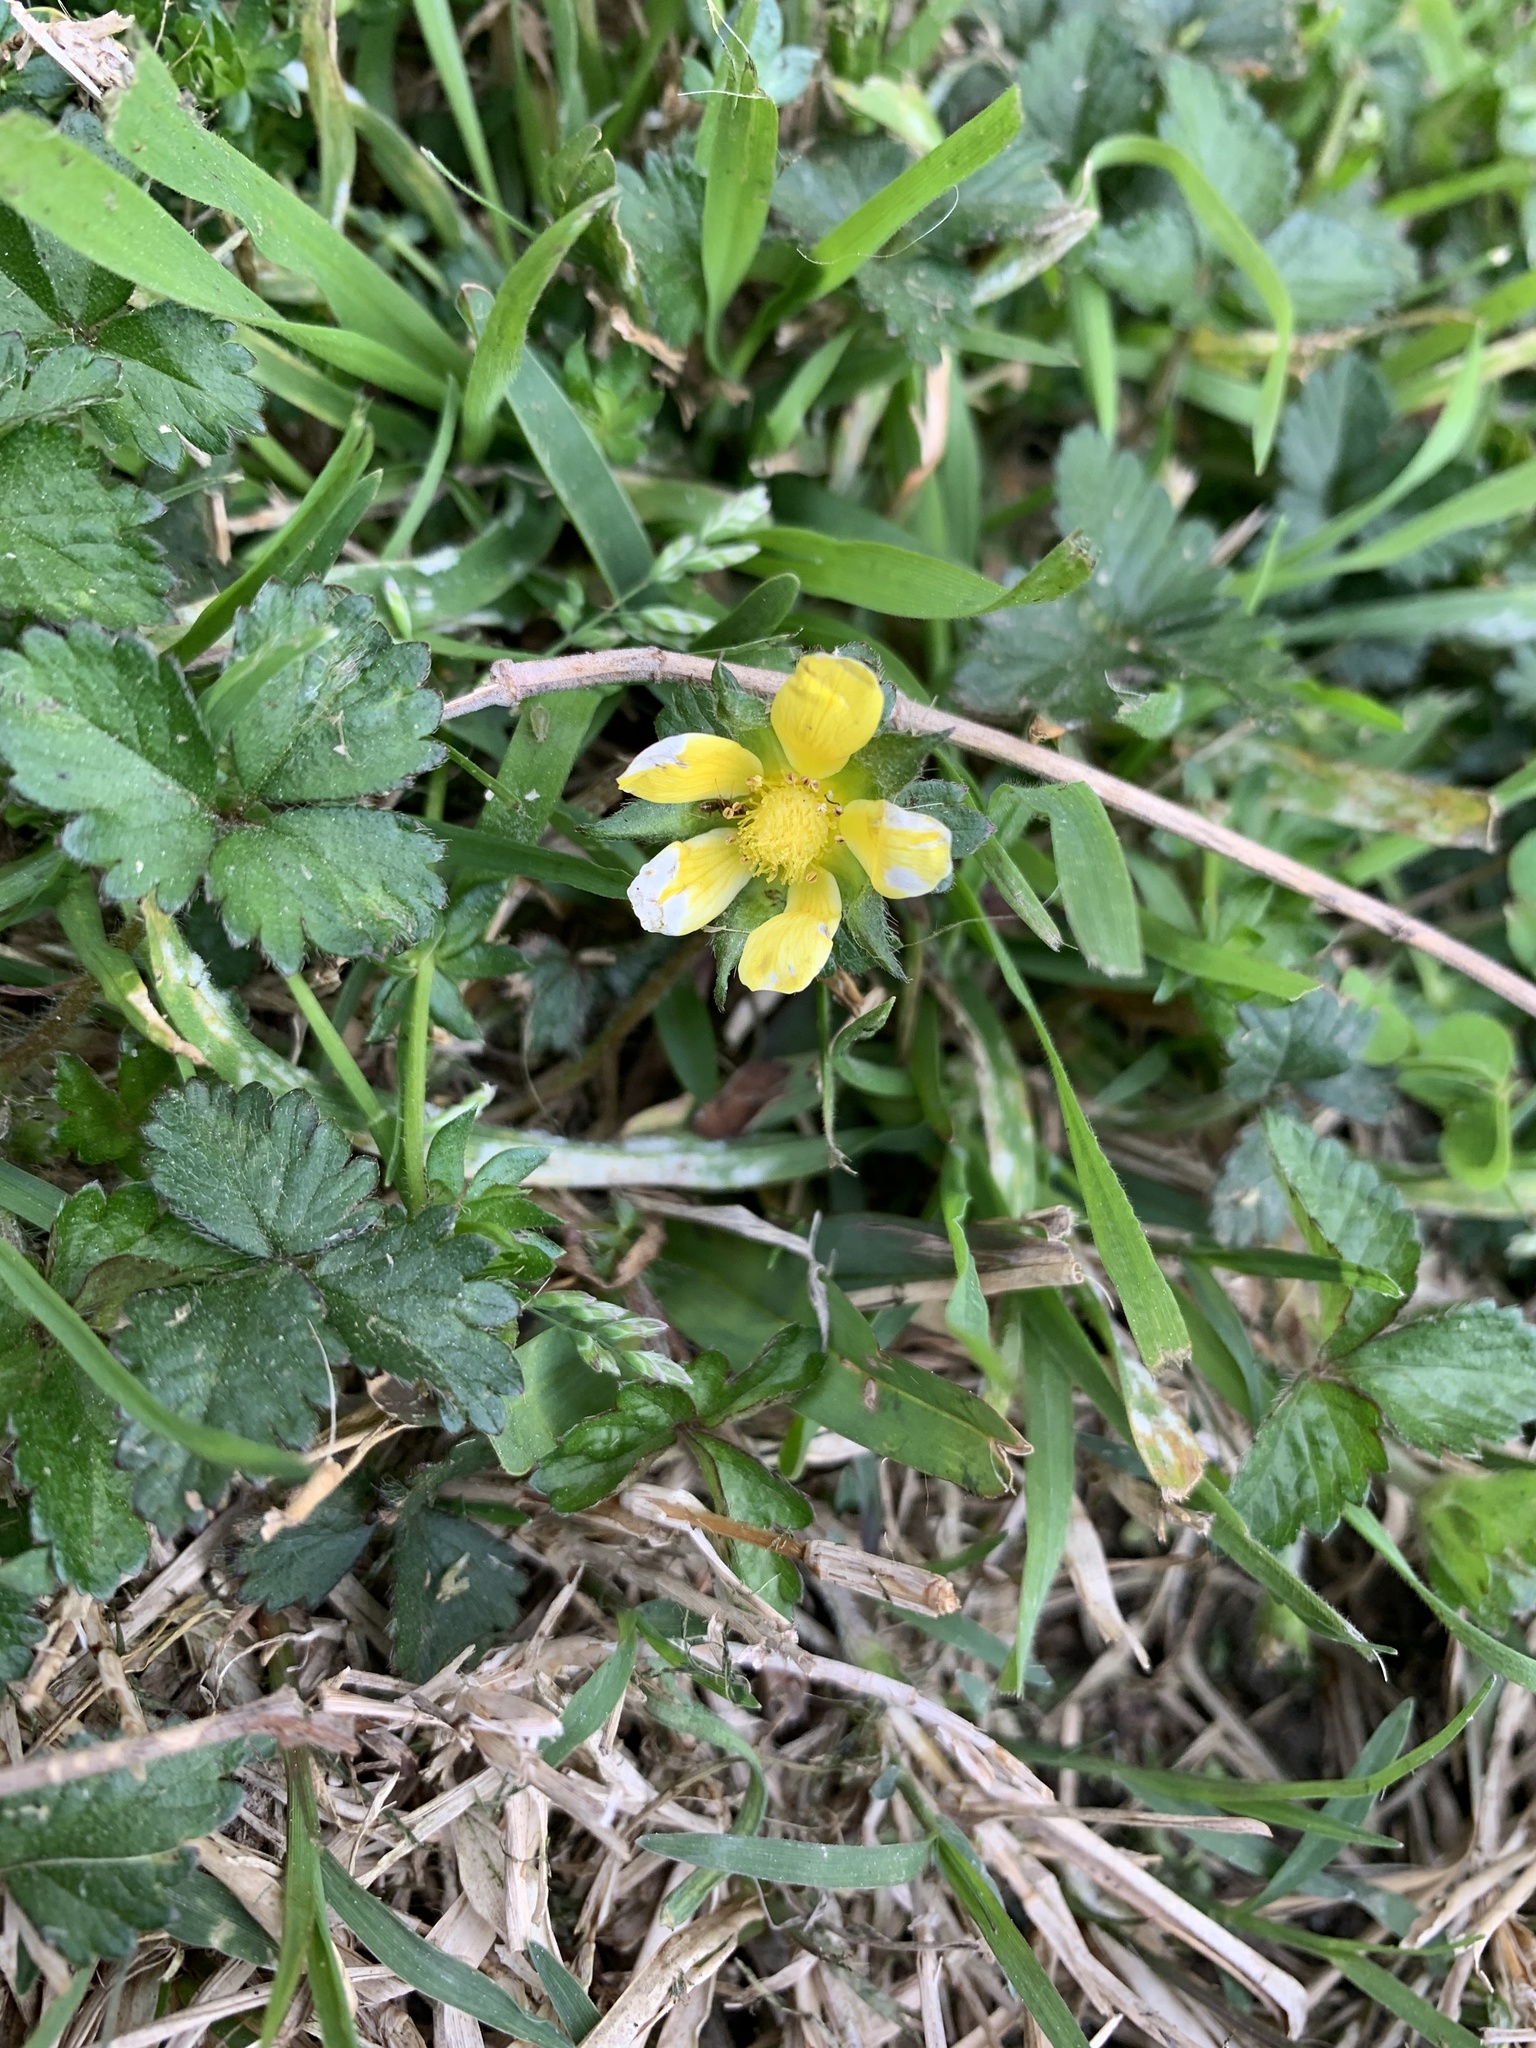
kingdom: Plantae
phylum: Tracheophyta
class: Magnoliopsida
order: Rosales
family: Rosaceae
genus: Potentilla
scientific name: Potentilla indica
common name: Yellow-flowered strawberry
